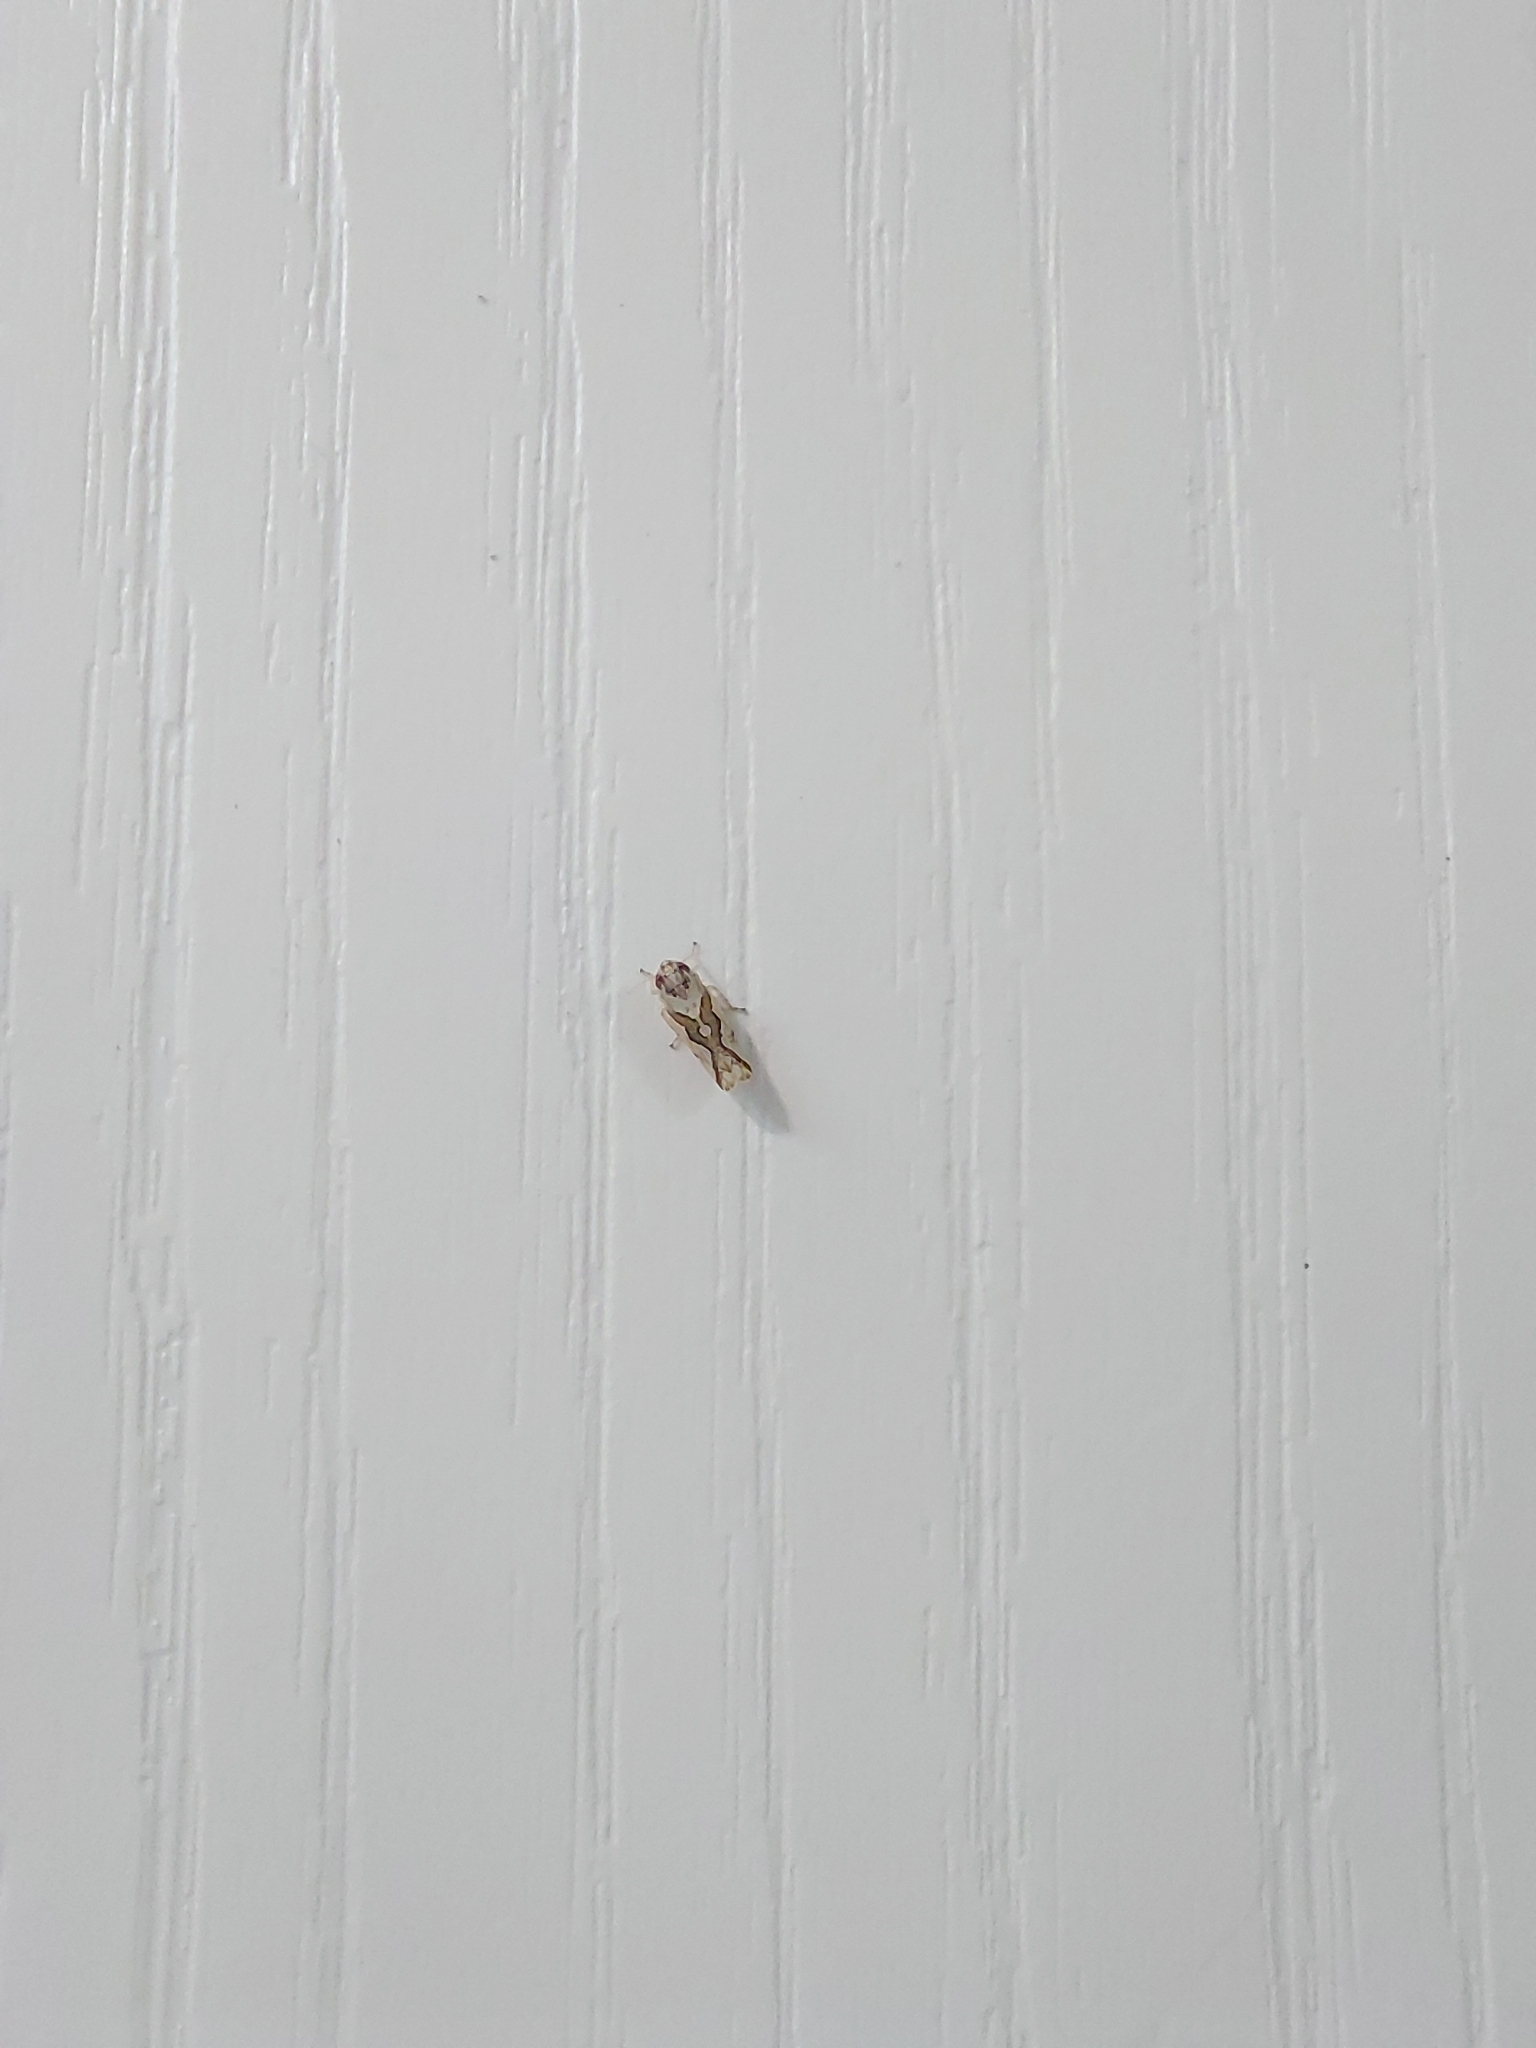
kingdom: Animalia
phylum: Arthropoda
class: Insecta
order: Hemiptera
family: Cicadellidae
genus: Maiestas
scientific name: Maiestas dorsalis
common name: Zig-zag leafhopper
